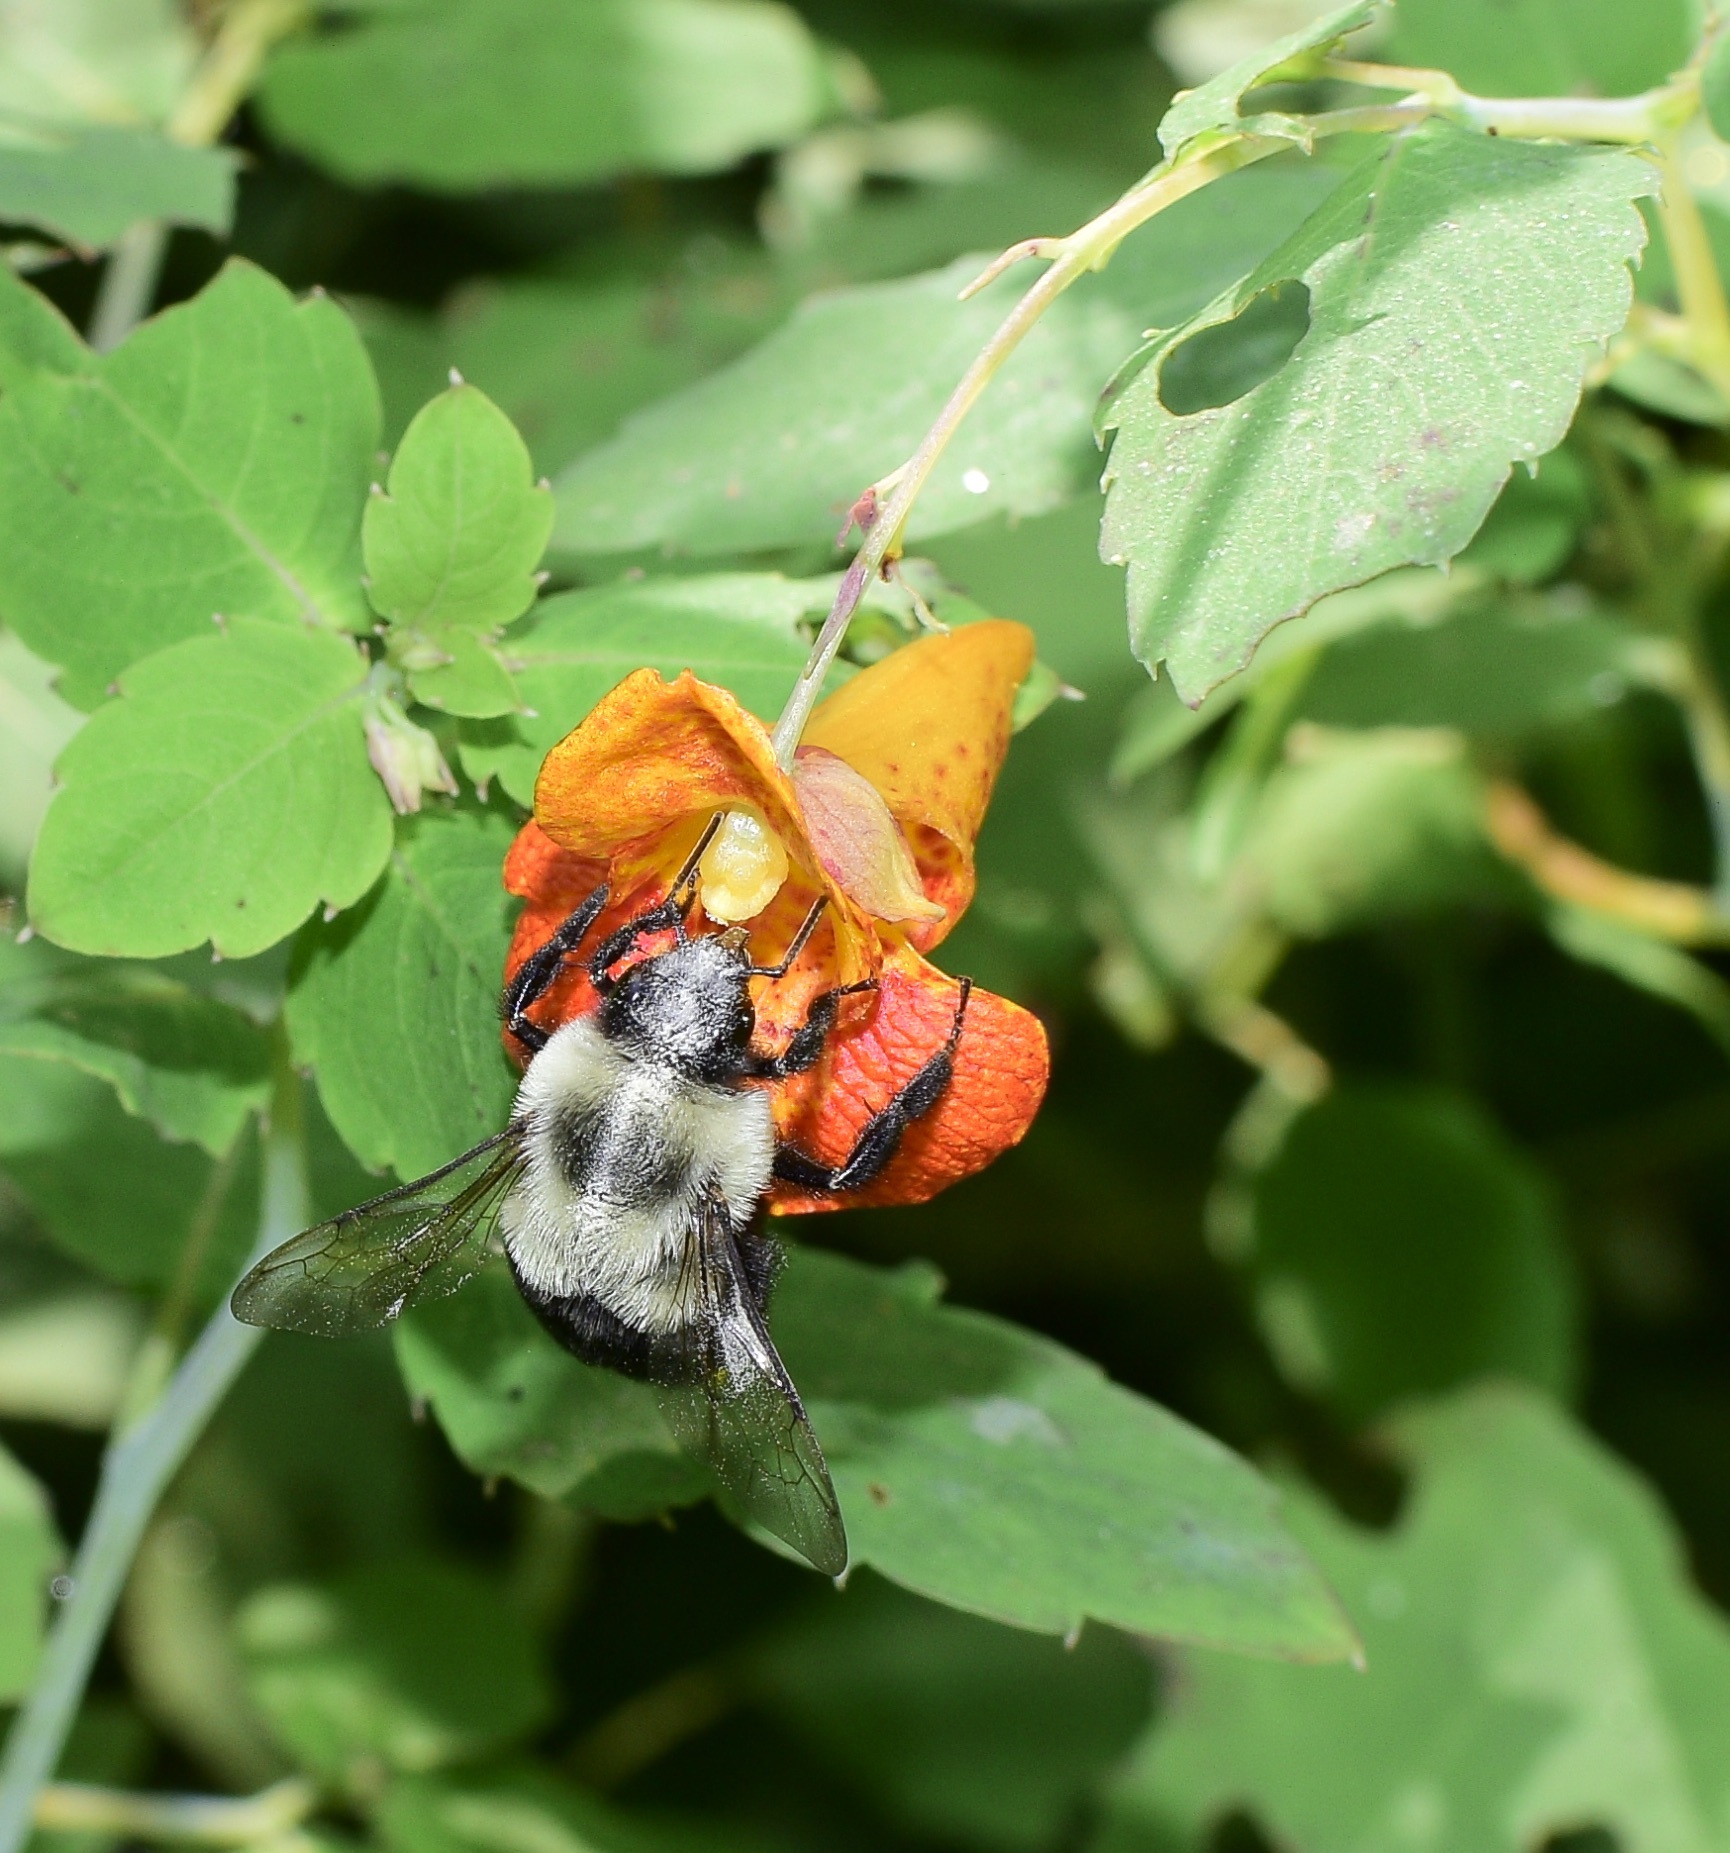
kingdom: Animalia
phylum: Arthropoda
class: Insecta
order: Hymenoptera
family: Apidae
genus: Bombus
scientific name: Bombus impatiens
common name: Common eastern bumble bee
